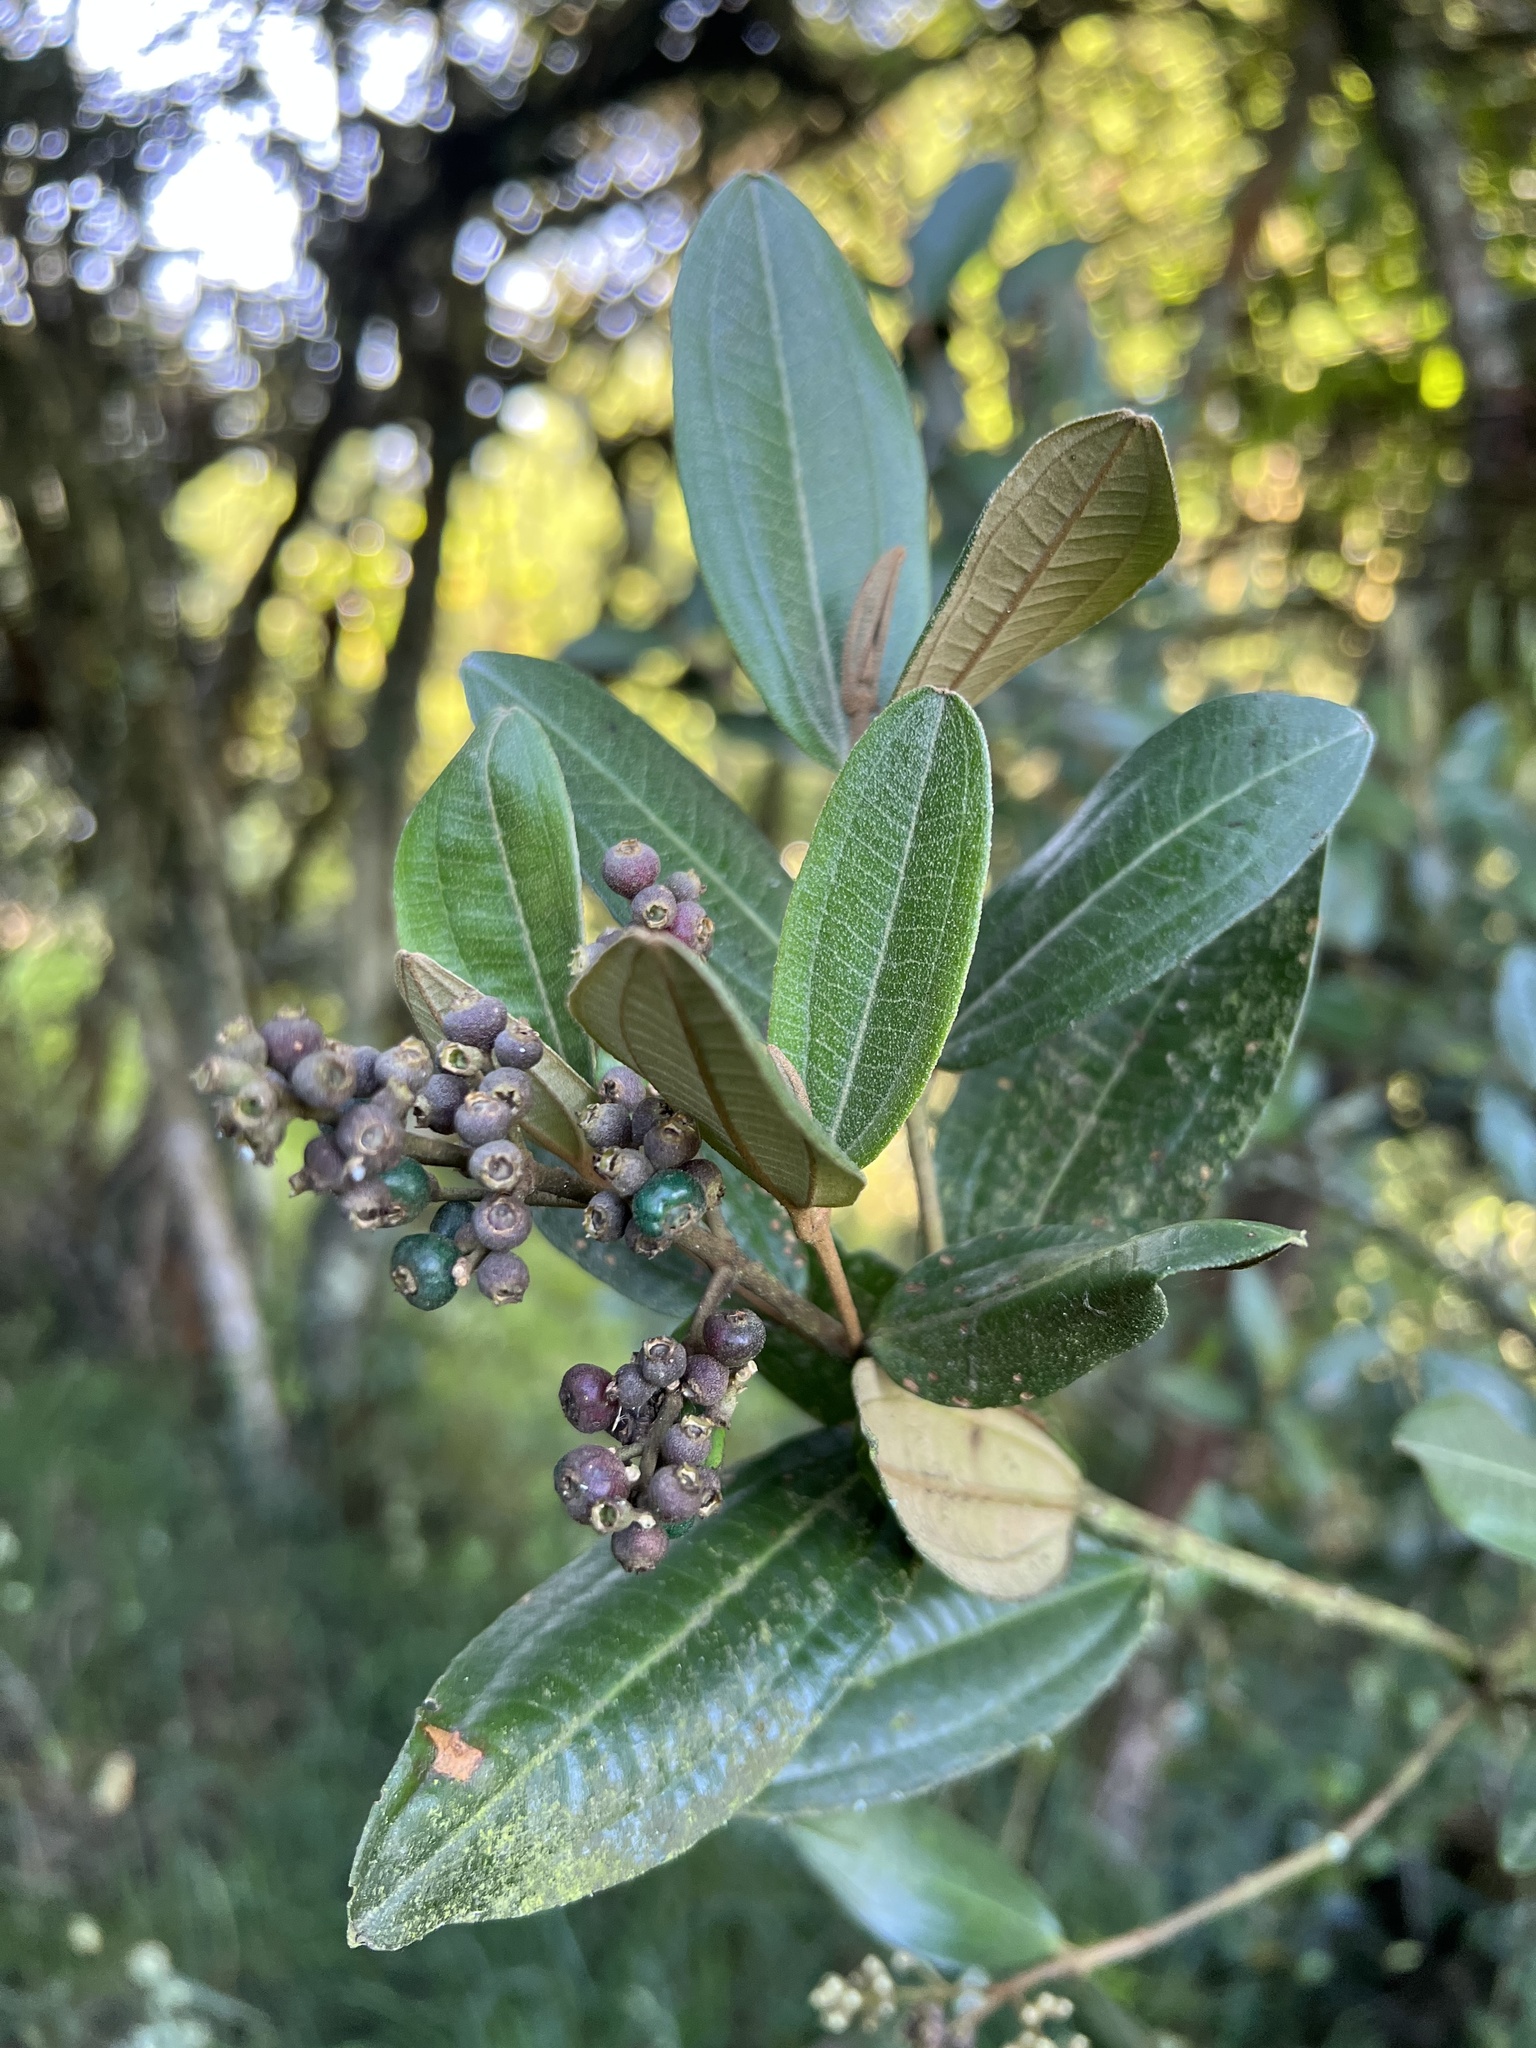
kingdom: Plantae
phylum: Tracheophyta
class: Magnoliopsida
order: Myrtales
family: Melastomataceae
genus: Miconia
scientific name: Miconia squamulosa
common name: Squamulose maya
